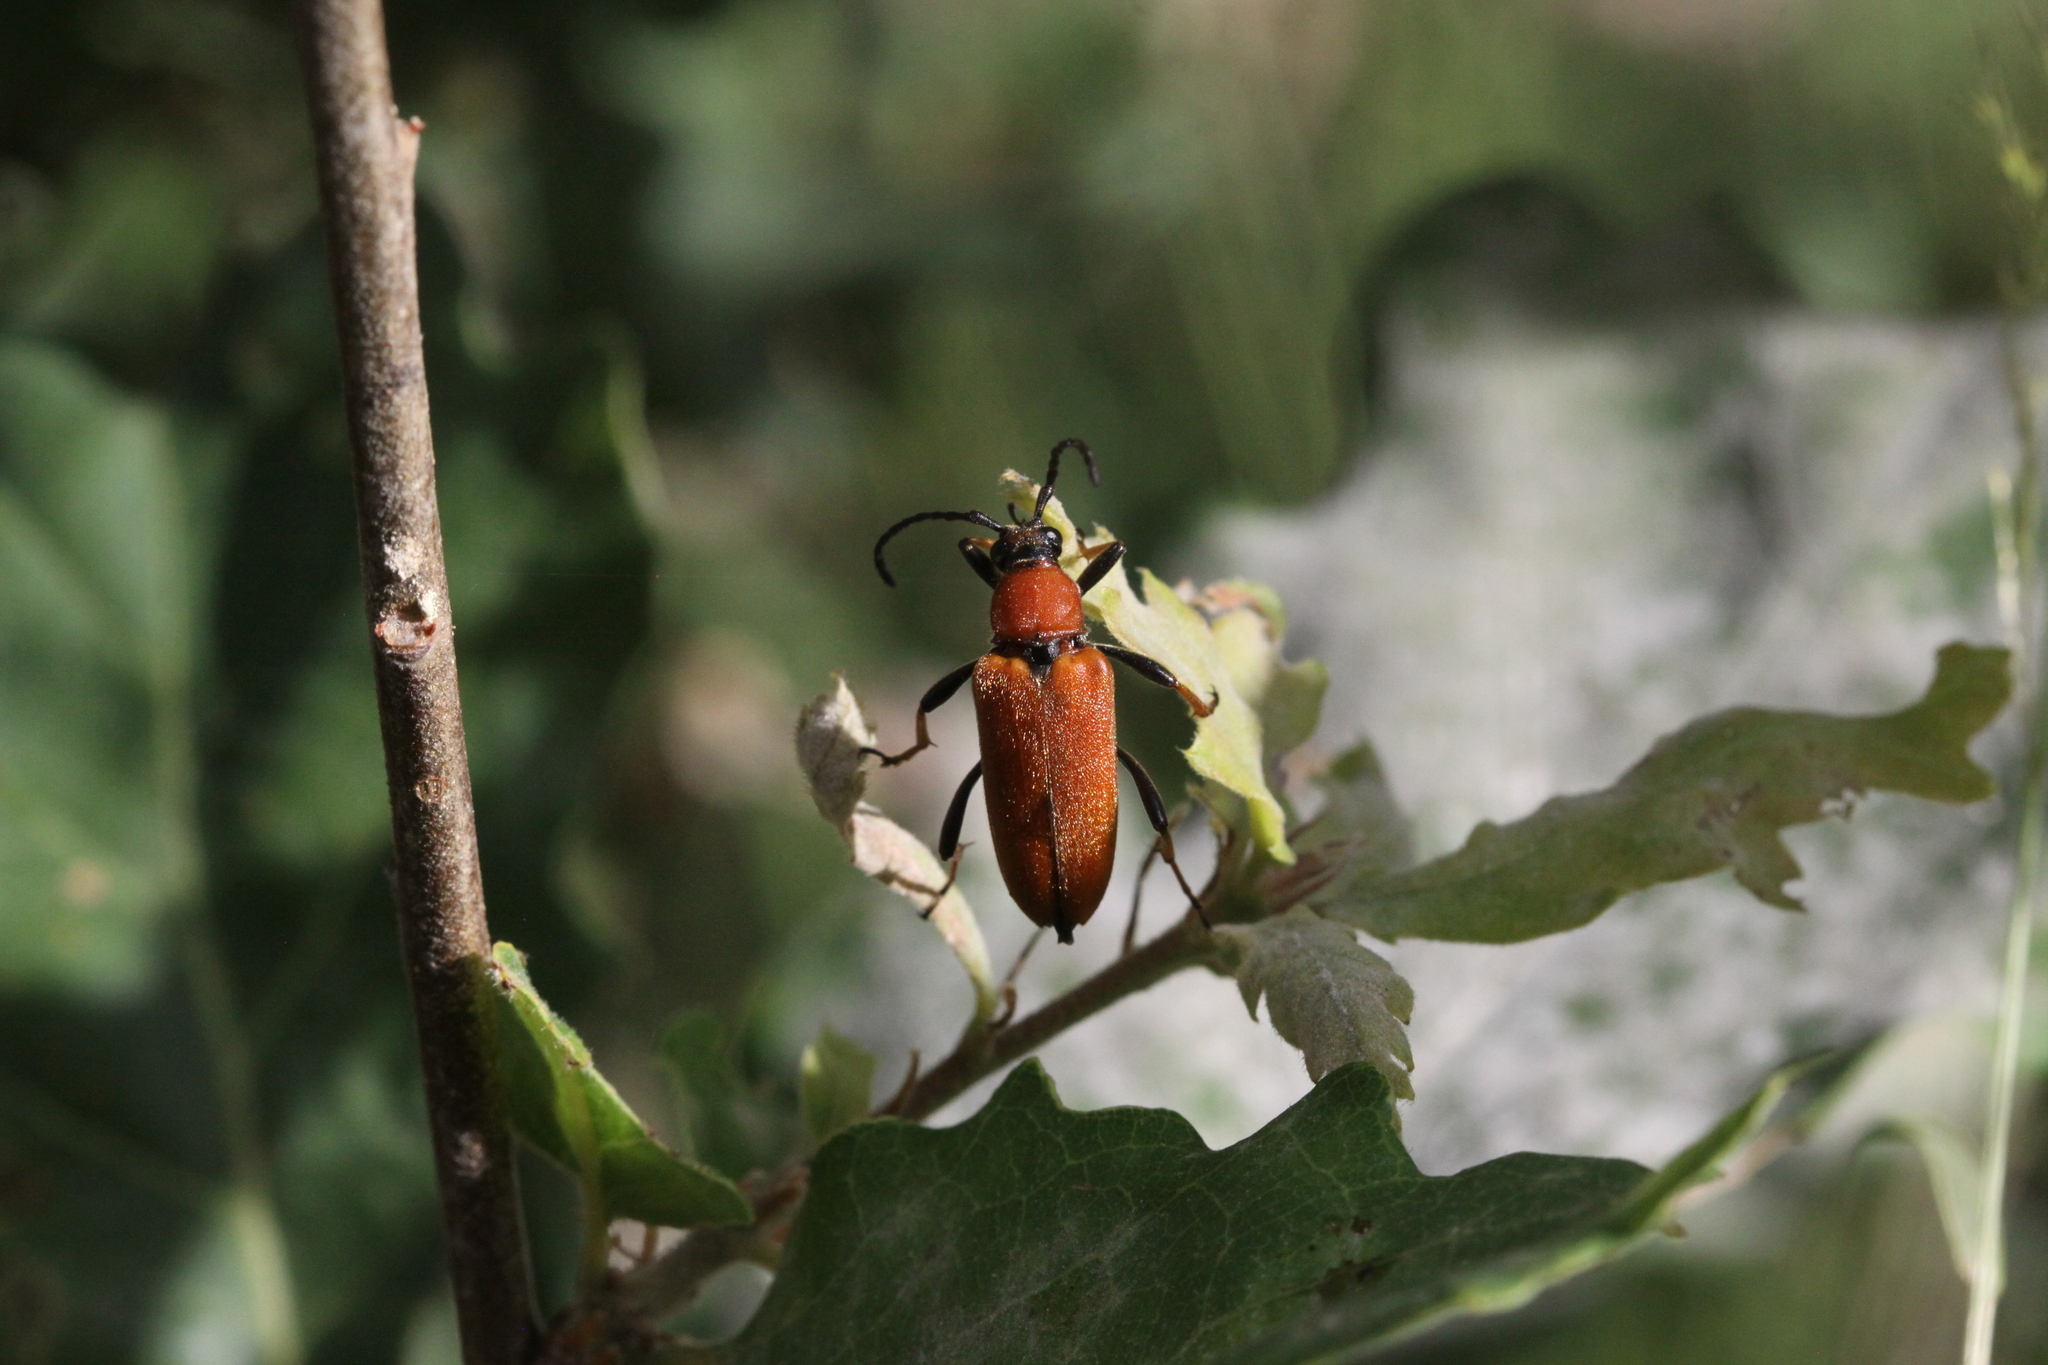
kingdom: Animalia
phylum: Arthropoda
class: Insecta
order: Coleoptera
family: Cerambycidae
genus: Stictoleptura
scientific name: Stictoleptura rubra
